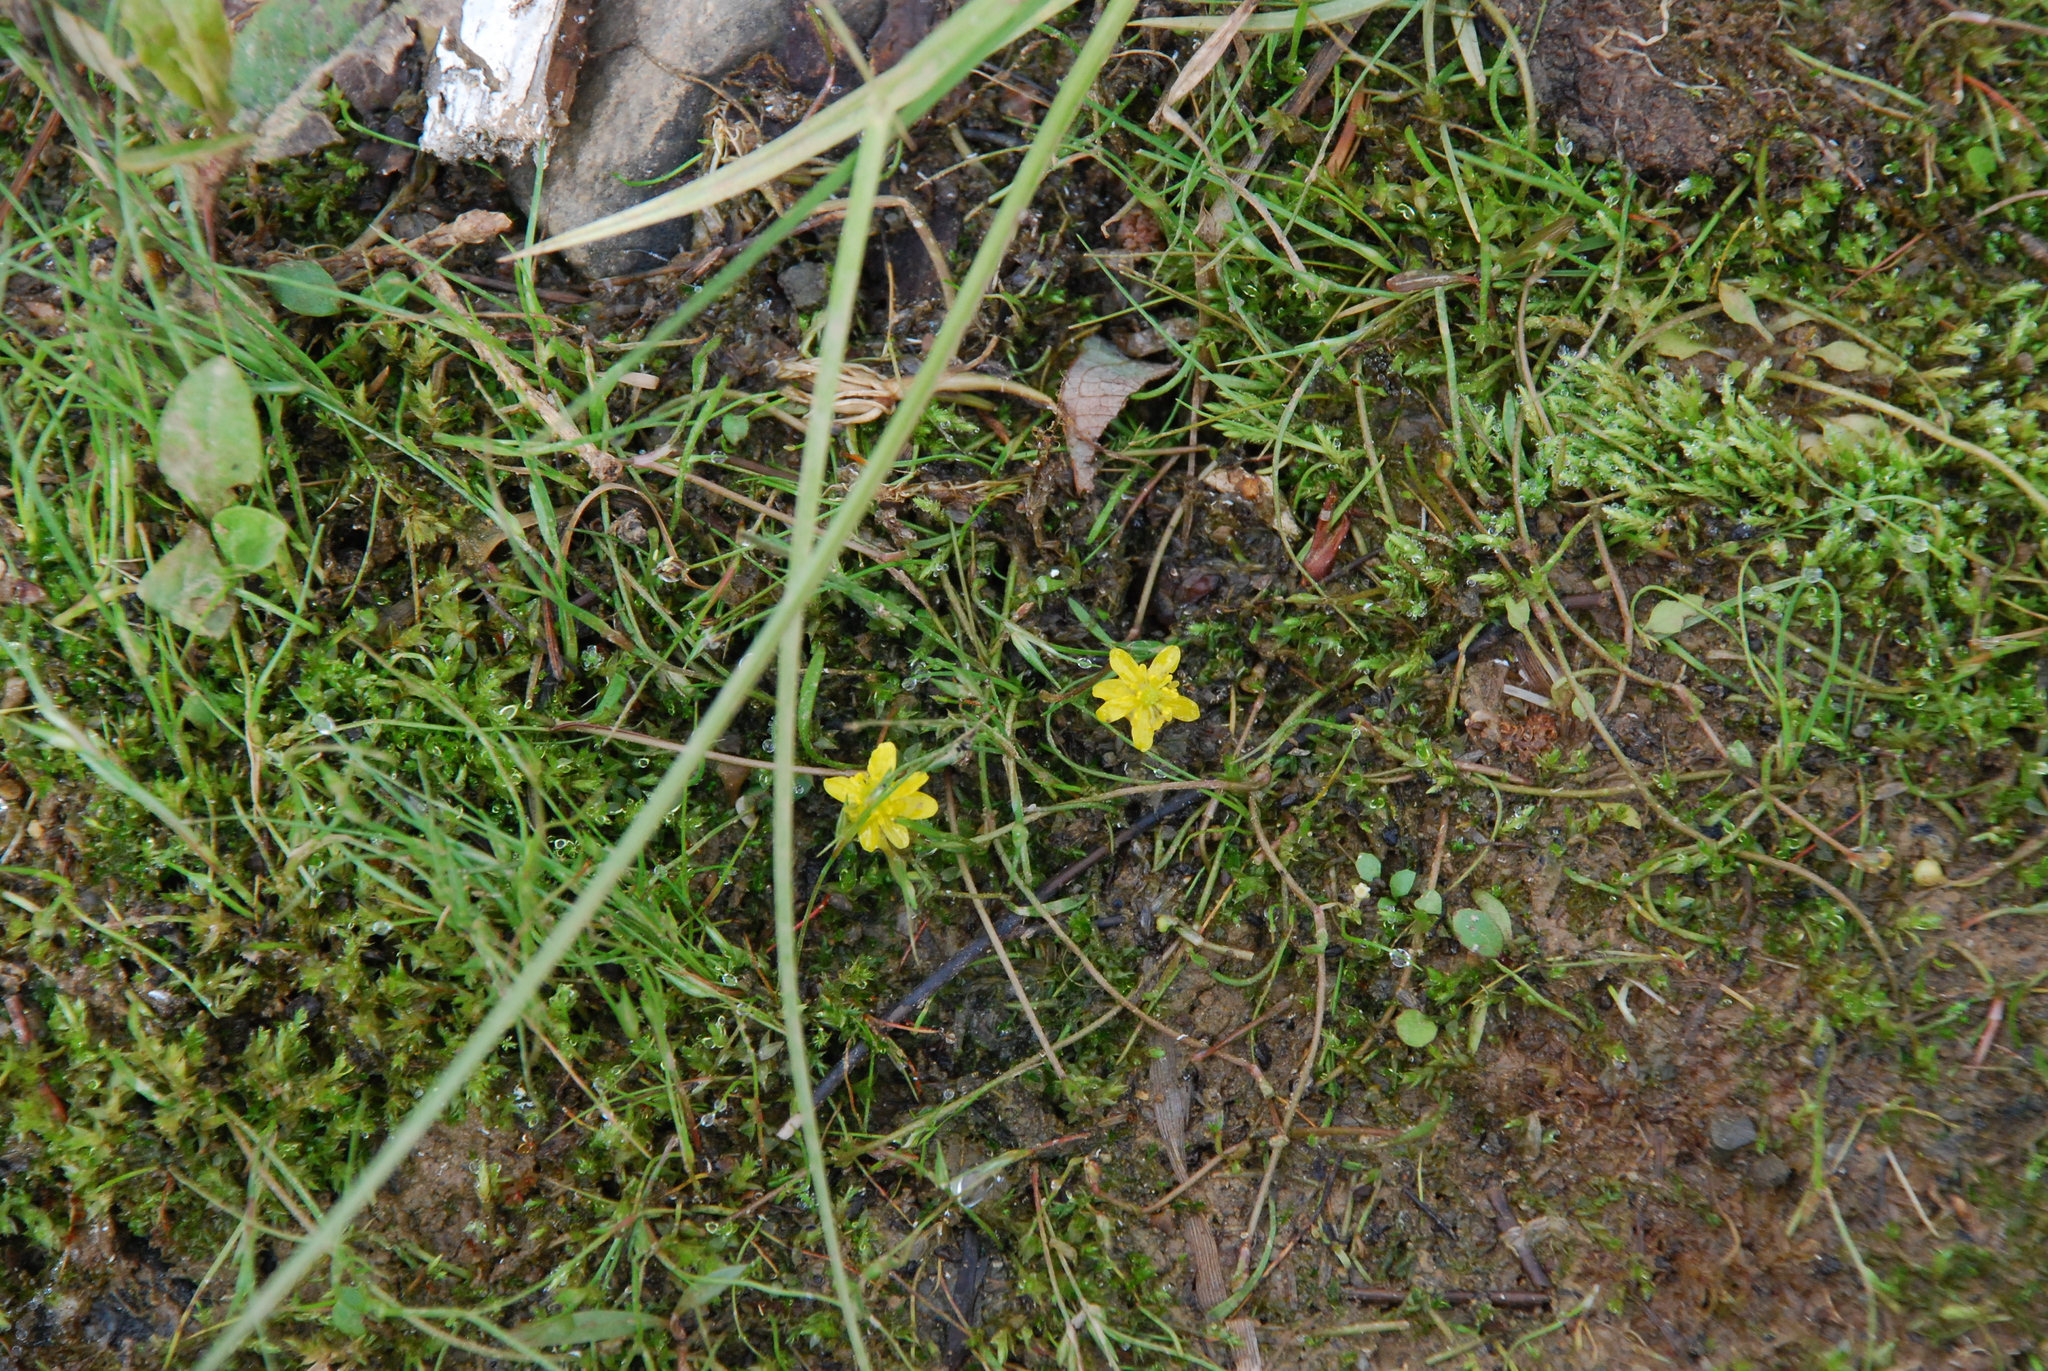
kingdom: Plantae
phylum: Tracheophyta
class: Magnoliopsida
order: Ranunculales
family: Ranunculaceae
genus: Ranunculus
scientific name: Ranunculus reptans
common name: Creeping spearwort
